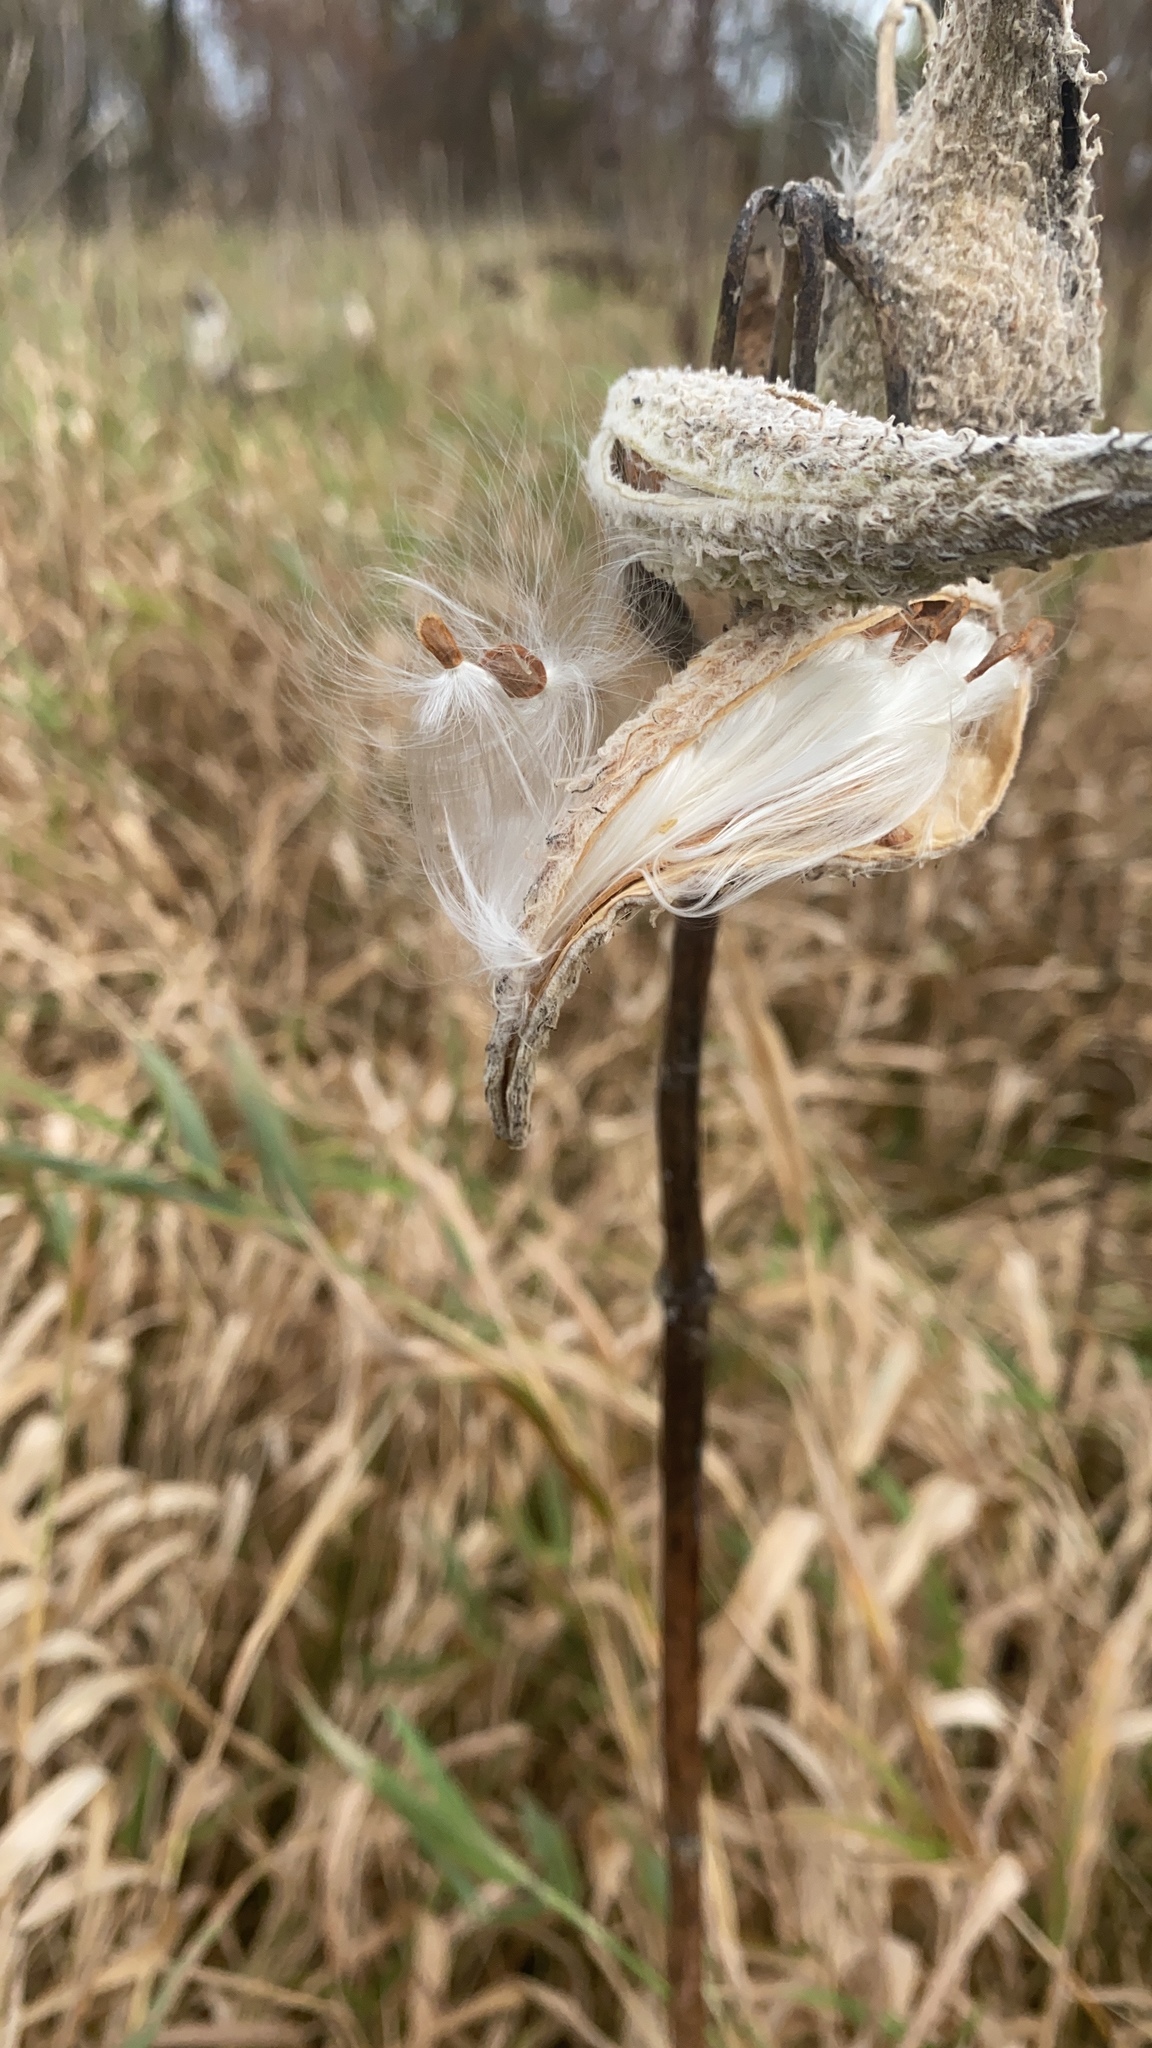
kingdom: Plantae
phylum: Tracheophyta
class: Magnoliopsida
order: Gentianales
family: Apocynaceae
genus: Asclepias
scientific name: Asclepias syriaca
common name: Common milkweed
